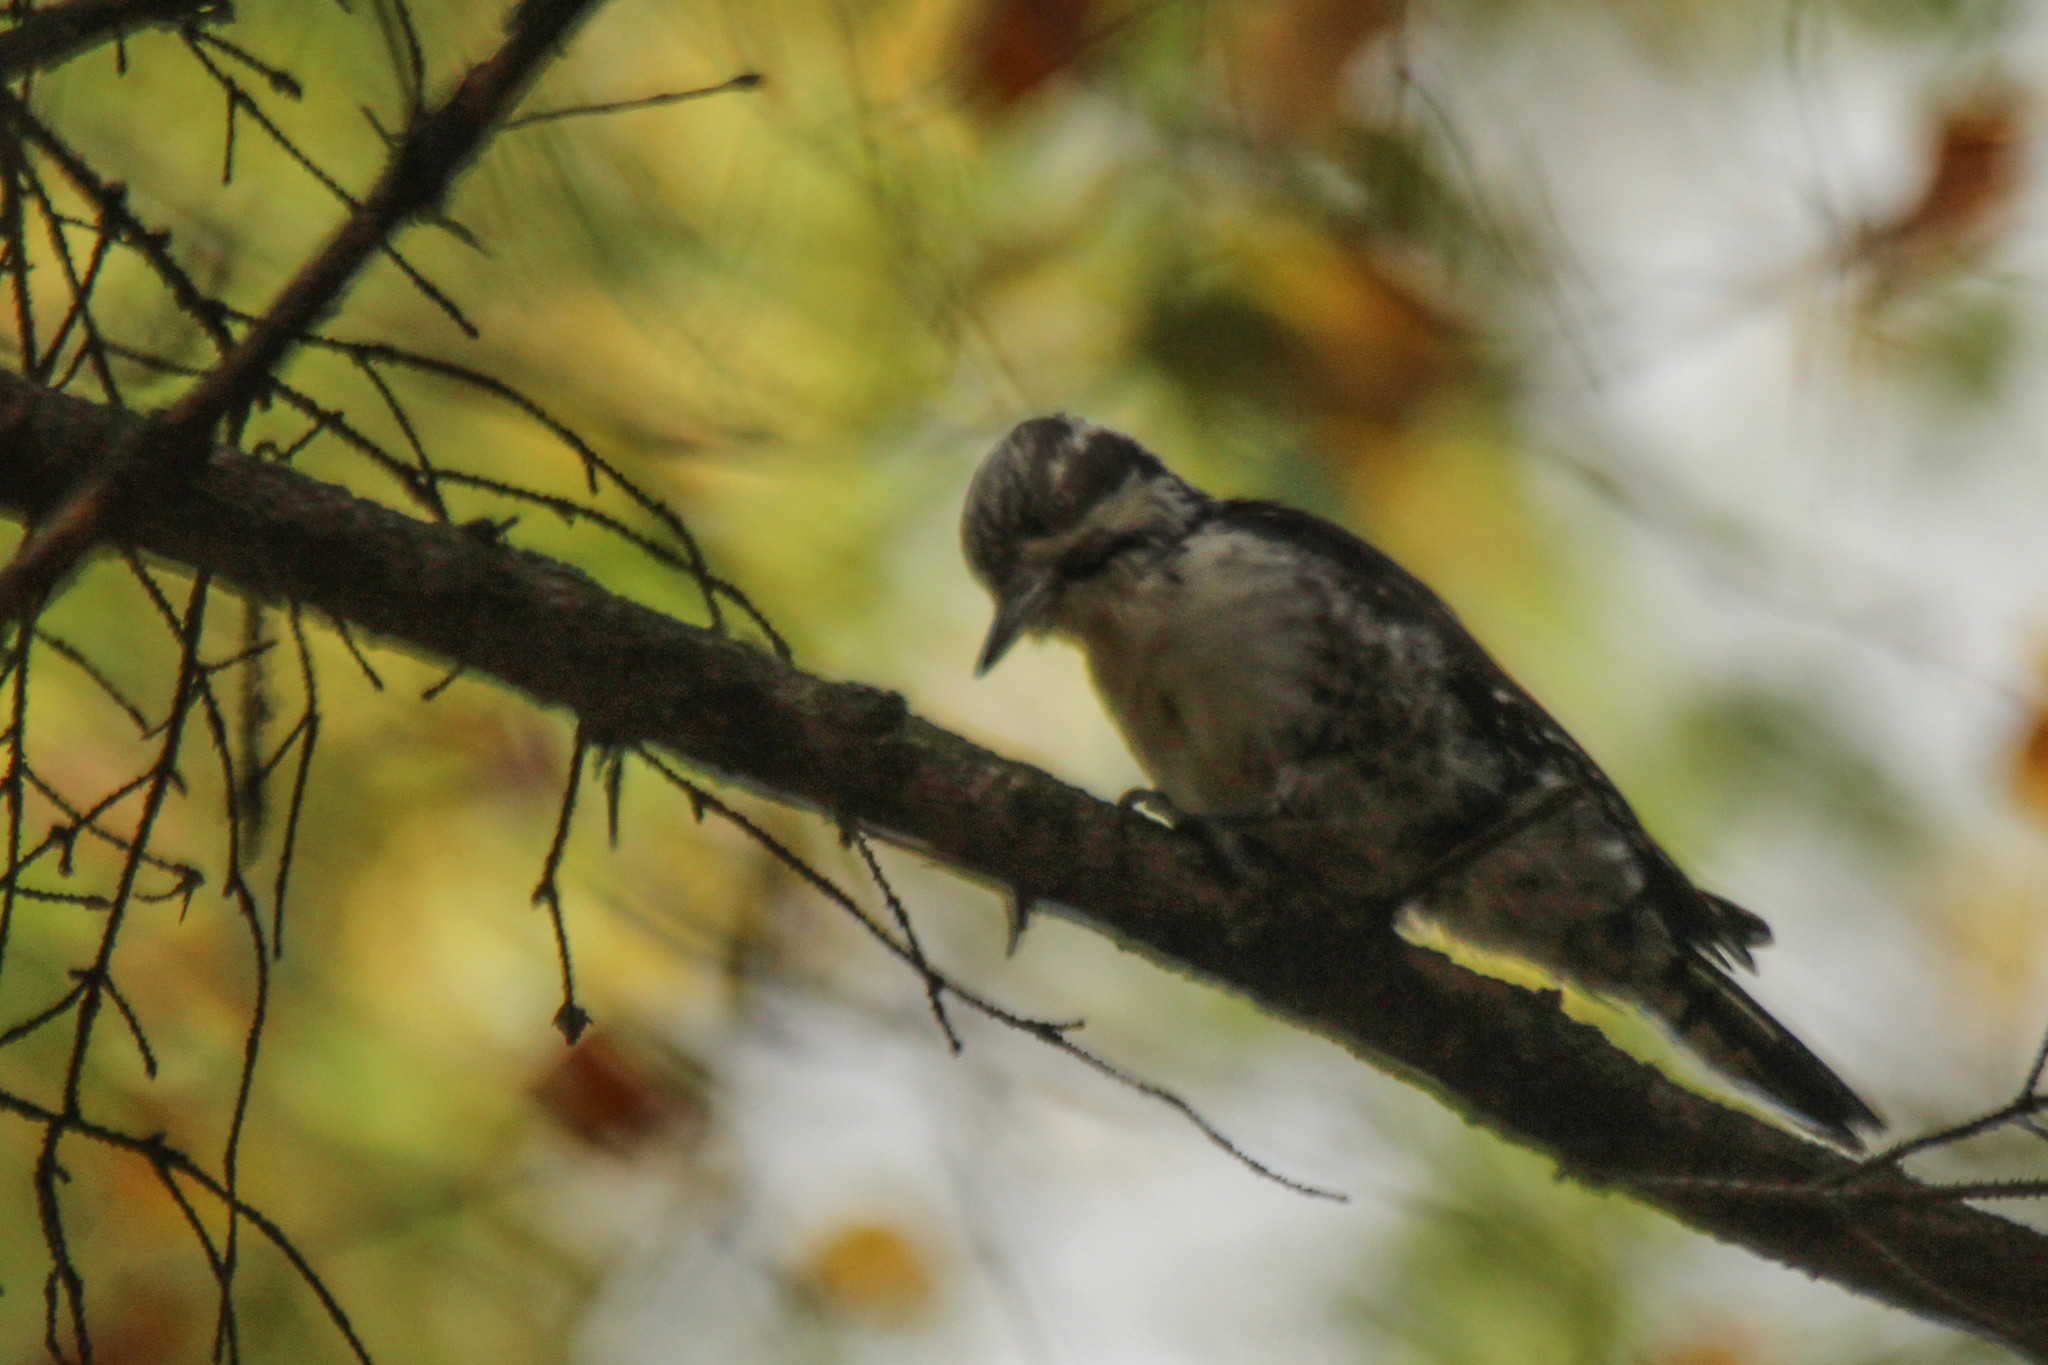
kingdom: Animalia
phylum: Chordata
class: Aves
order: Piciformes
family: Picidae
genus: Picoides
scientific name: Picoides tridactylus
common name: Eurasian three-toed woodpecker
